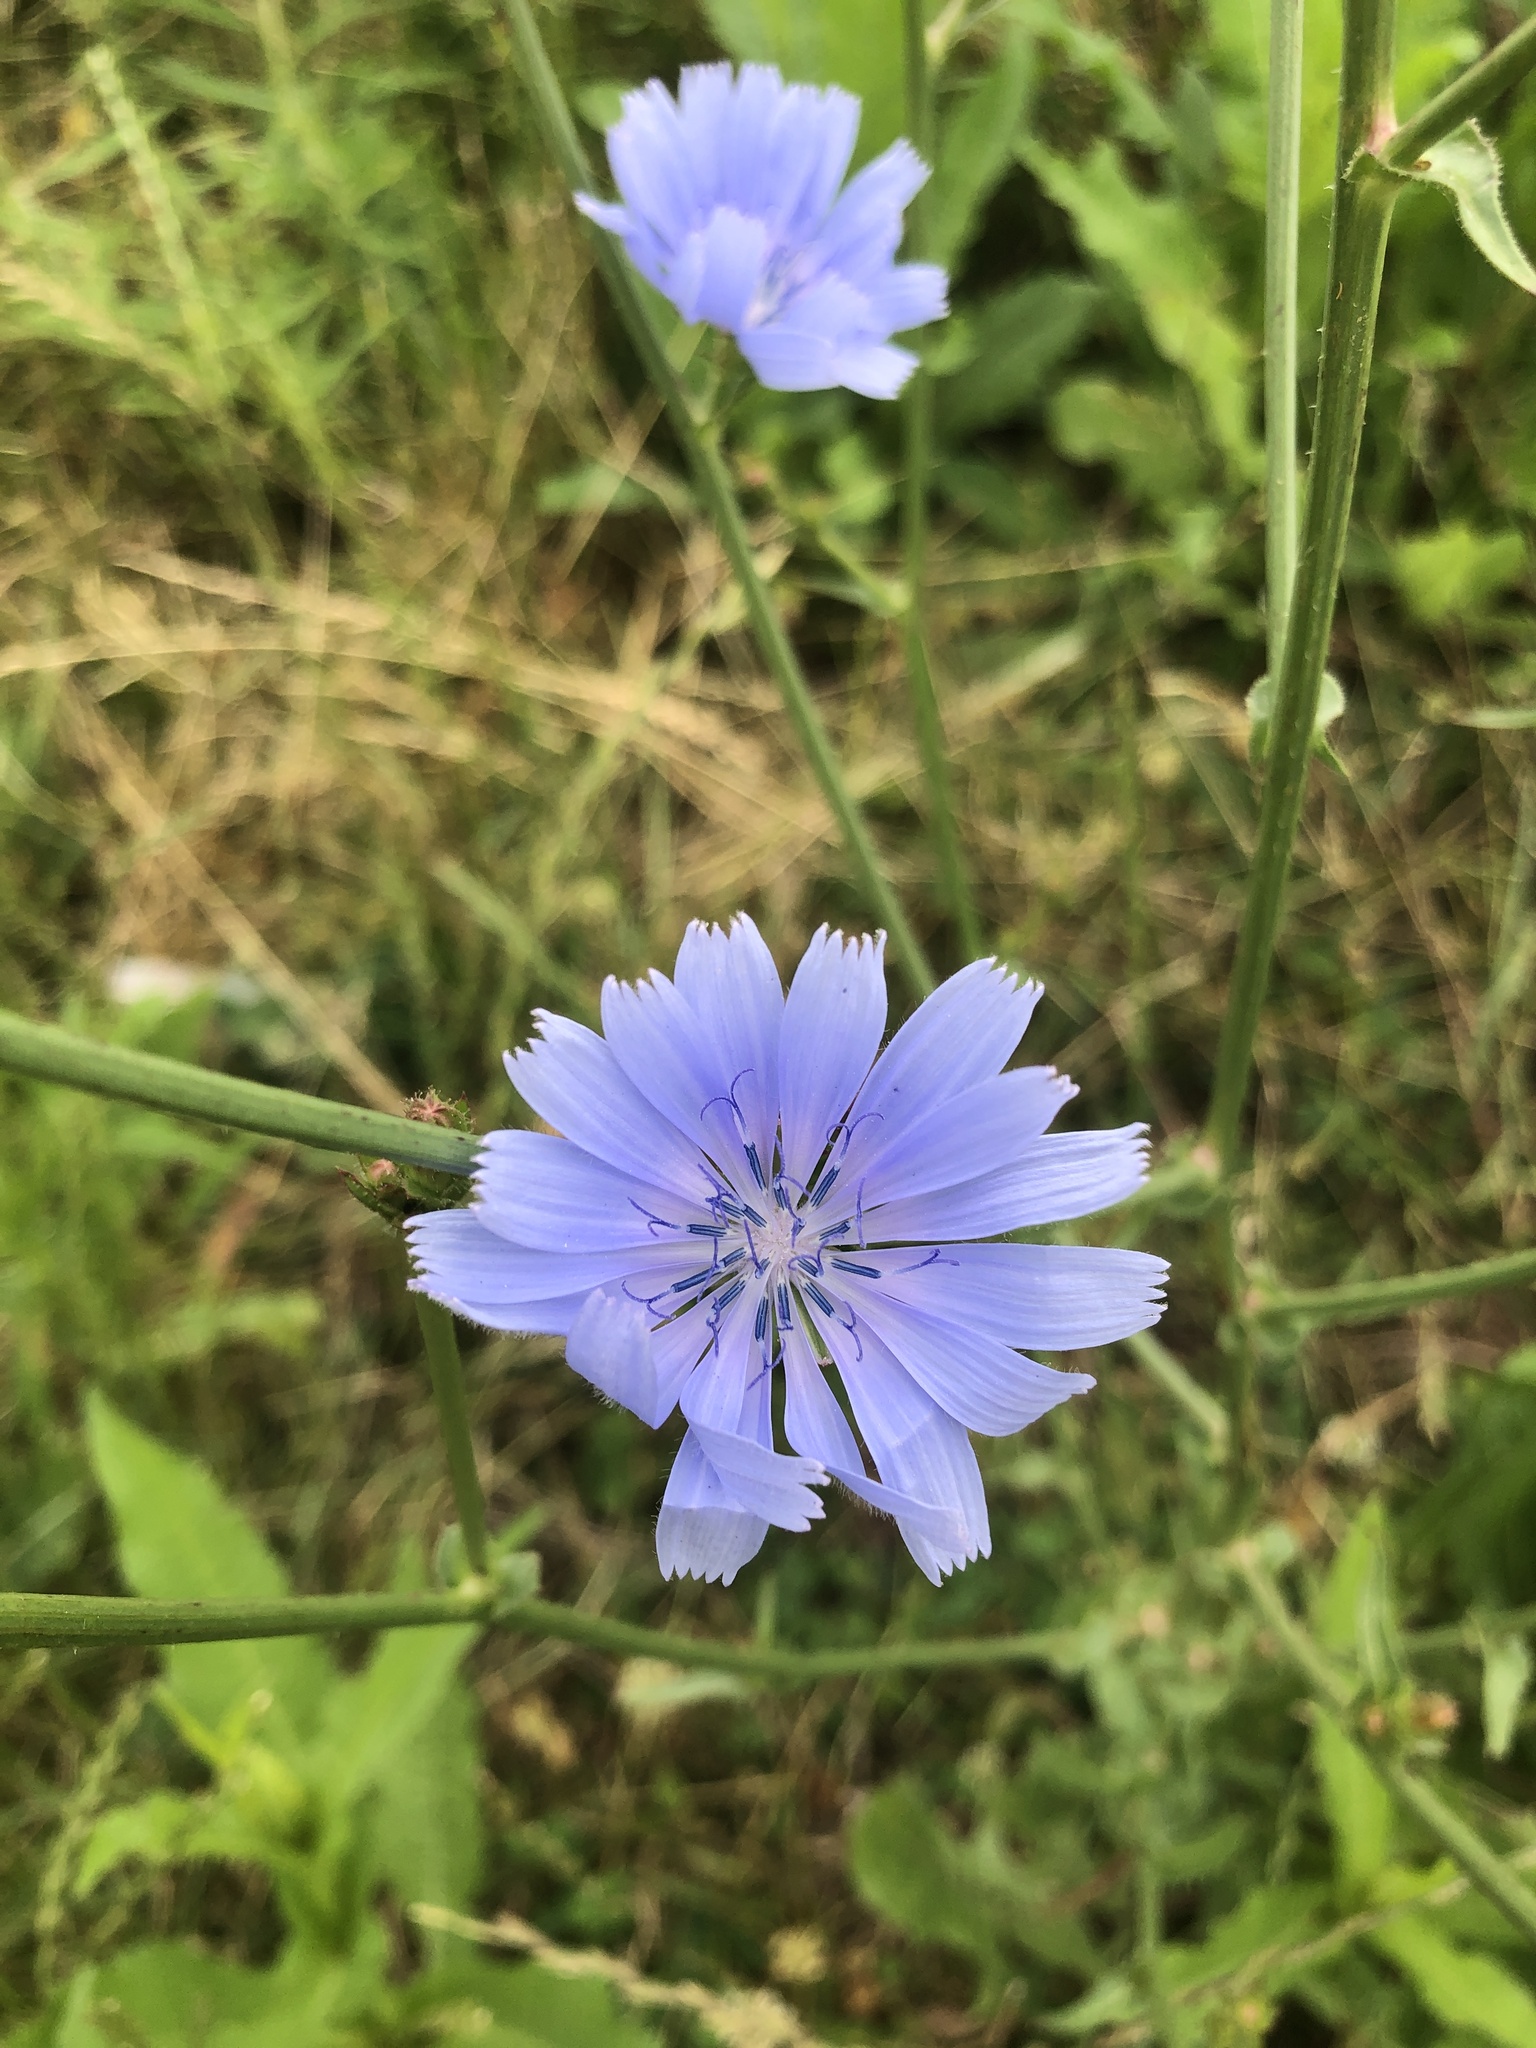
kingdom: Plantae
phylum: Tracheophyta
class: Magnoliopsida
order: Asterales
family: Asteraceae
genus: Cichorium
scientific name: Cichorium intybus
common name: Chicory
